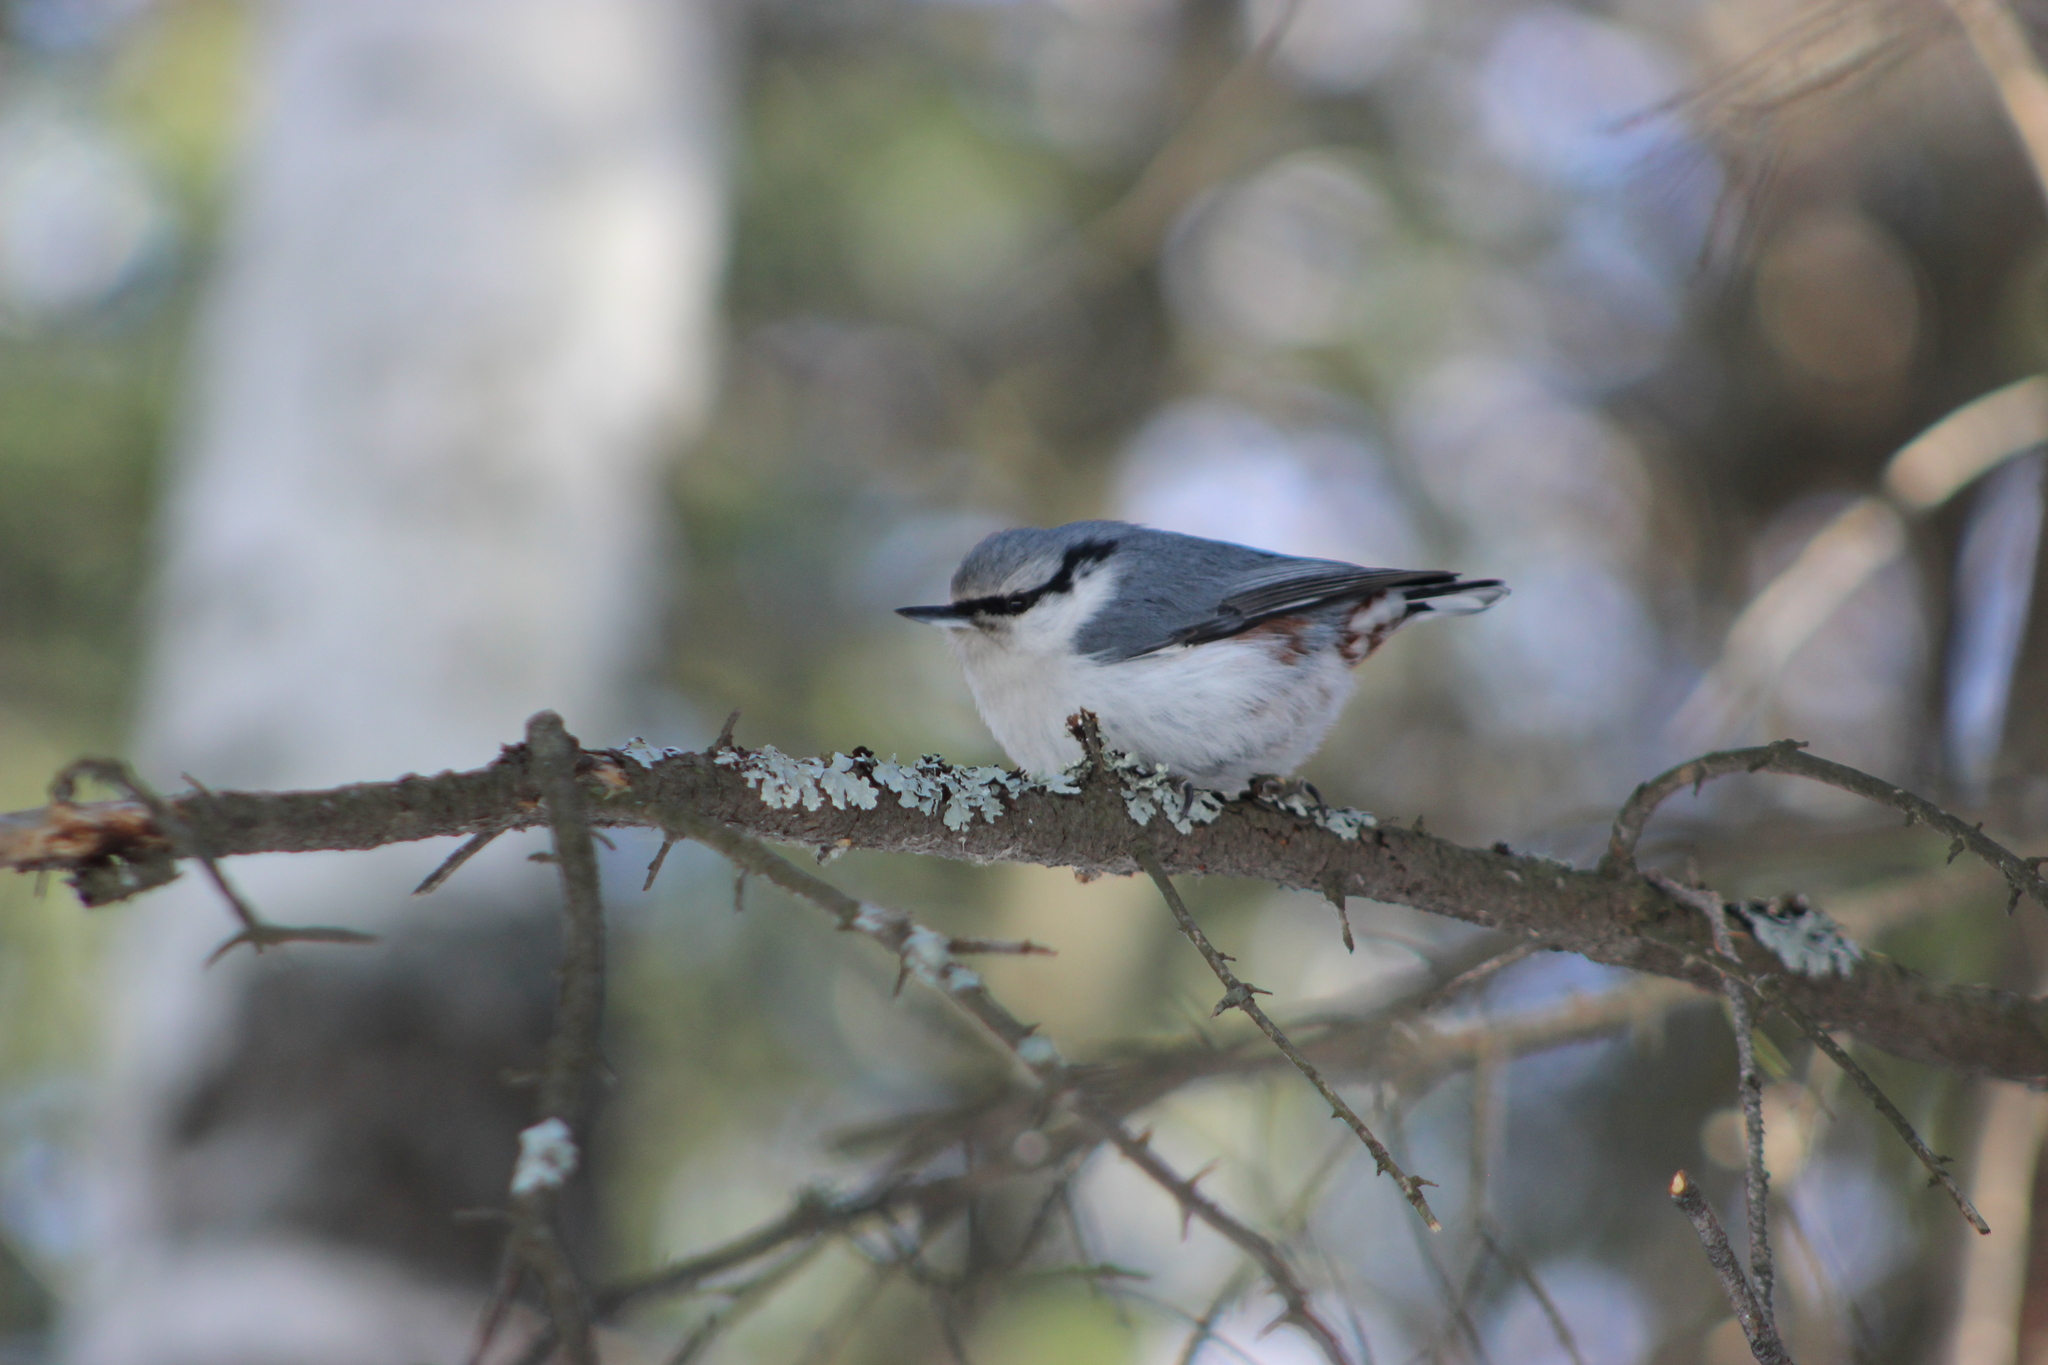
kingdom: Animalia
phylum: Chordata
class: Aves
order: Passeriformes
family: Sittidae
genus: Sitta
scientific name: Sitta europaea
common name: Eurasian nuthatch
